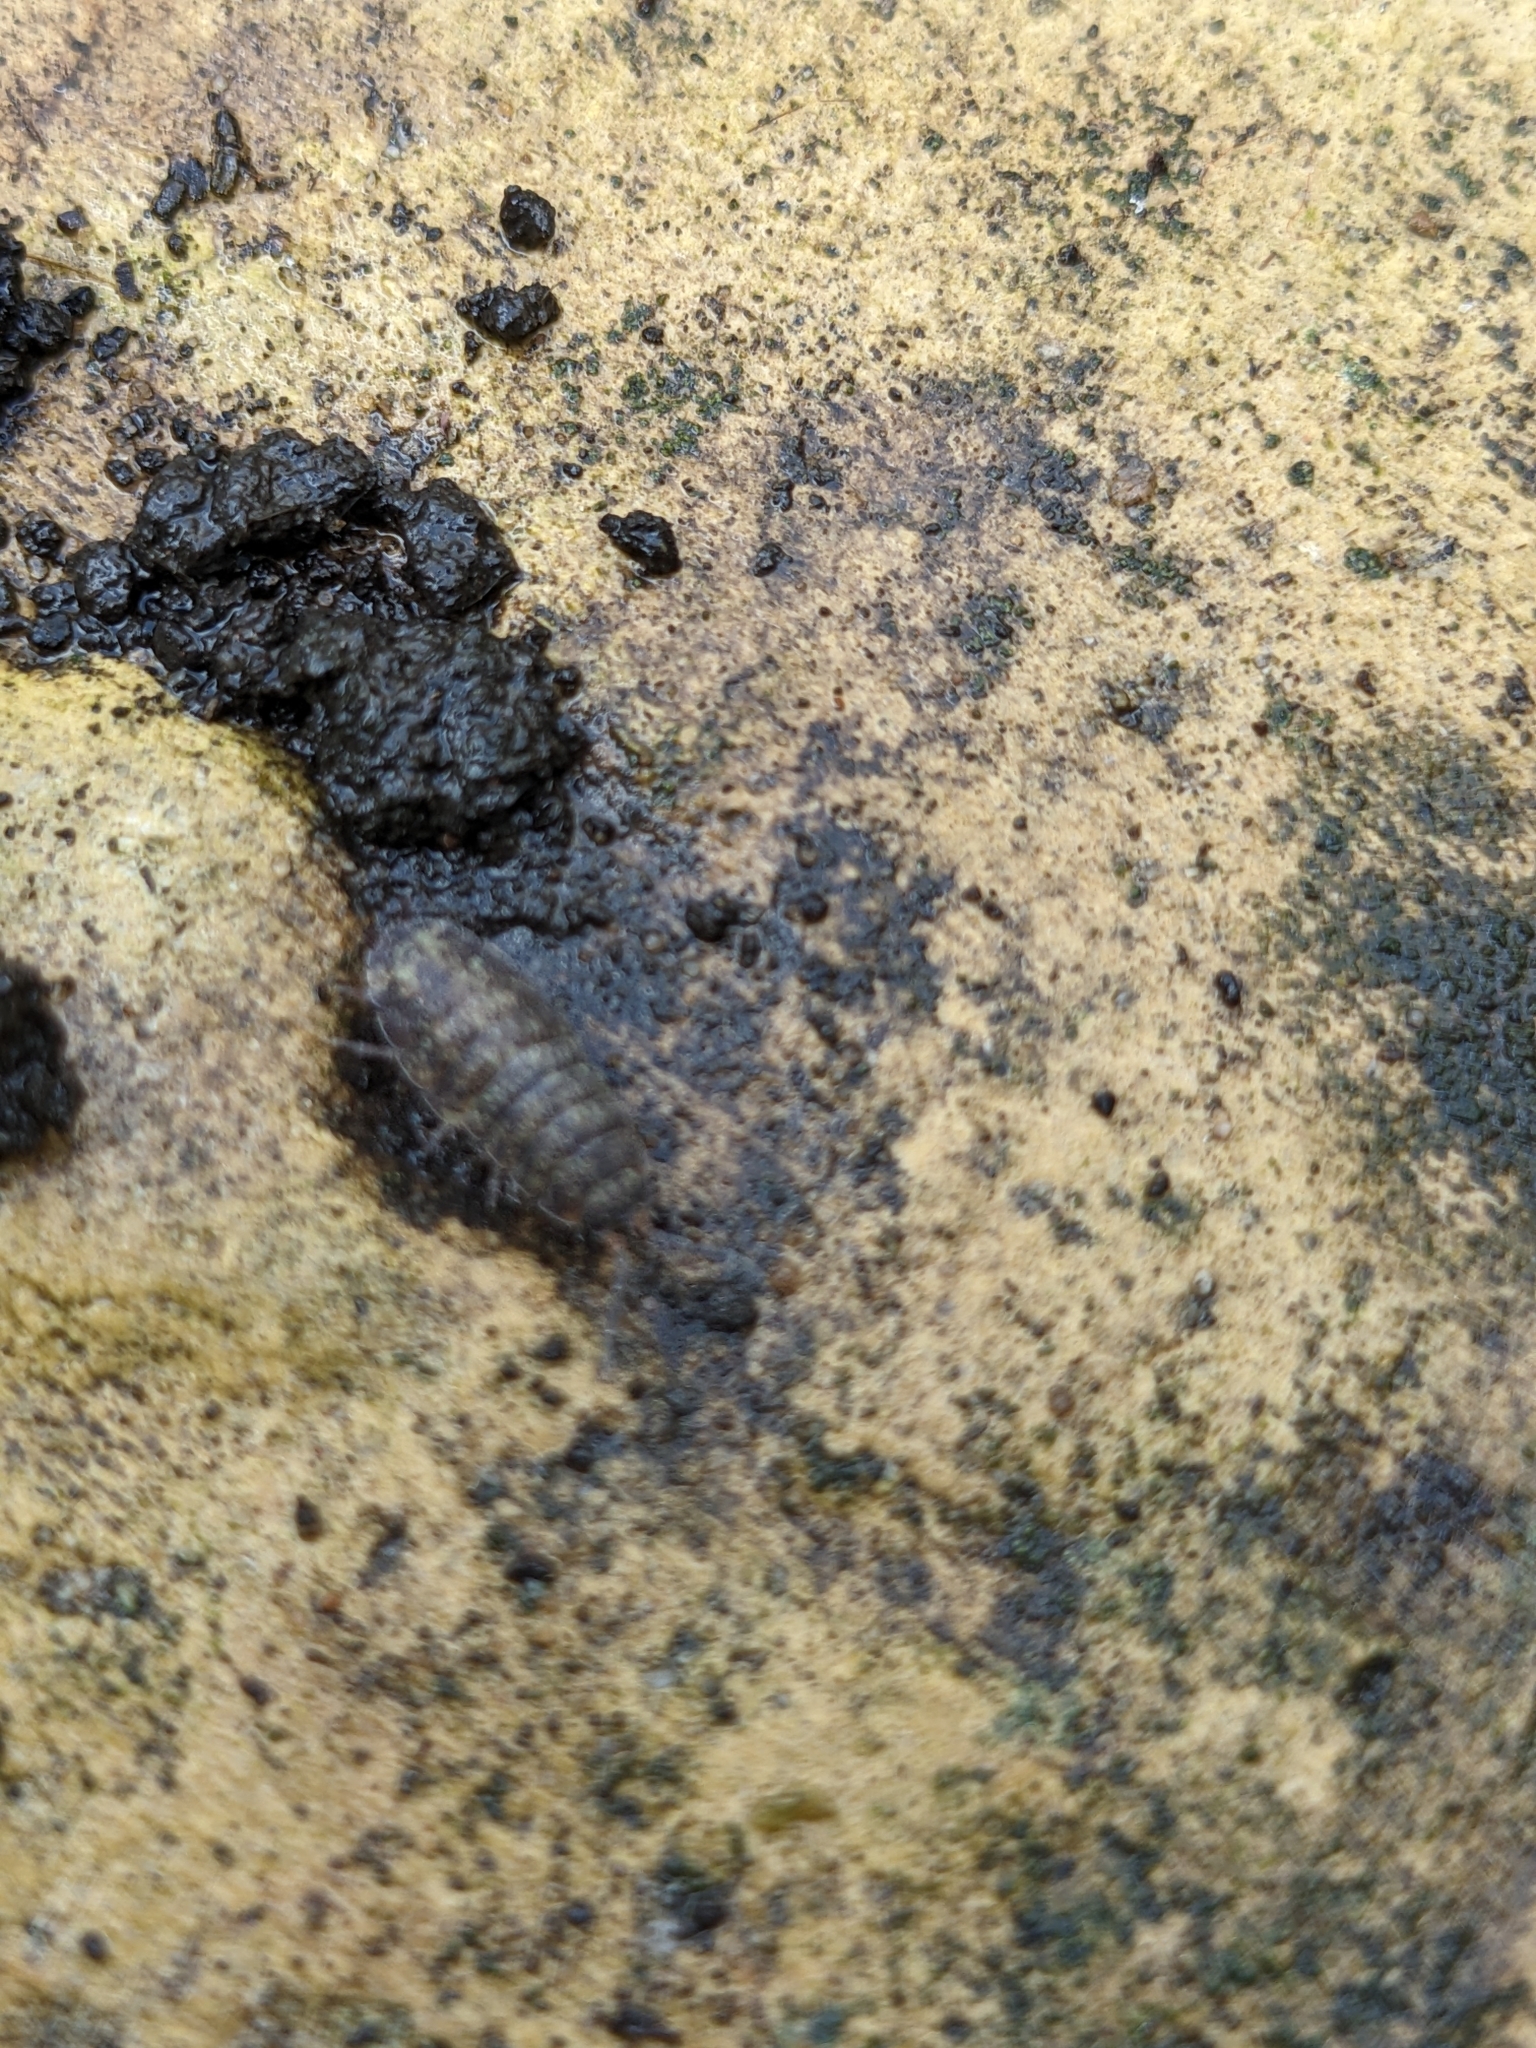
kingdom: Animalia
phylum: Arthropoda
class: Malacostraca
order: Isopoda
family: Porcellionidae
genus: Porcellio
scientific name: Porcellio scaber
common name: Common rough woodlouse
